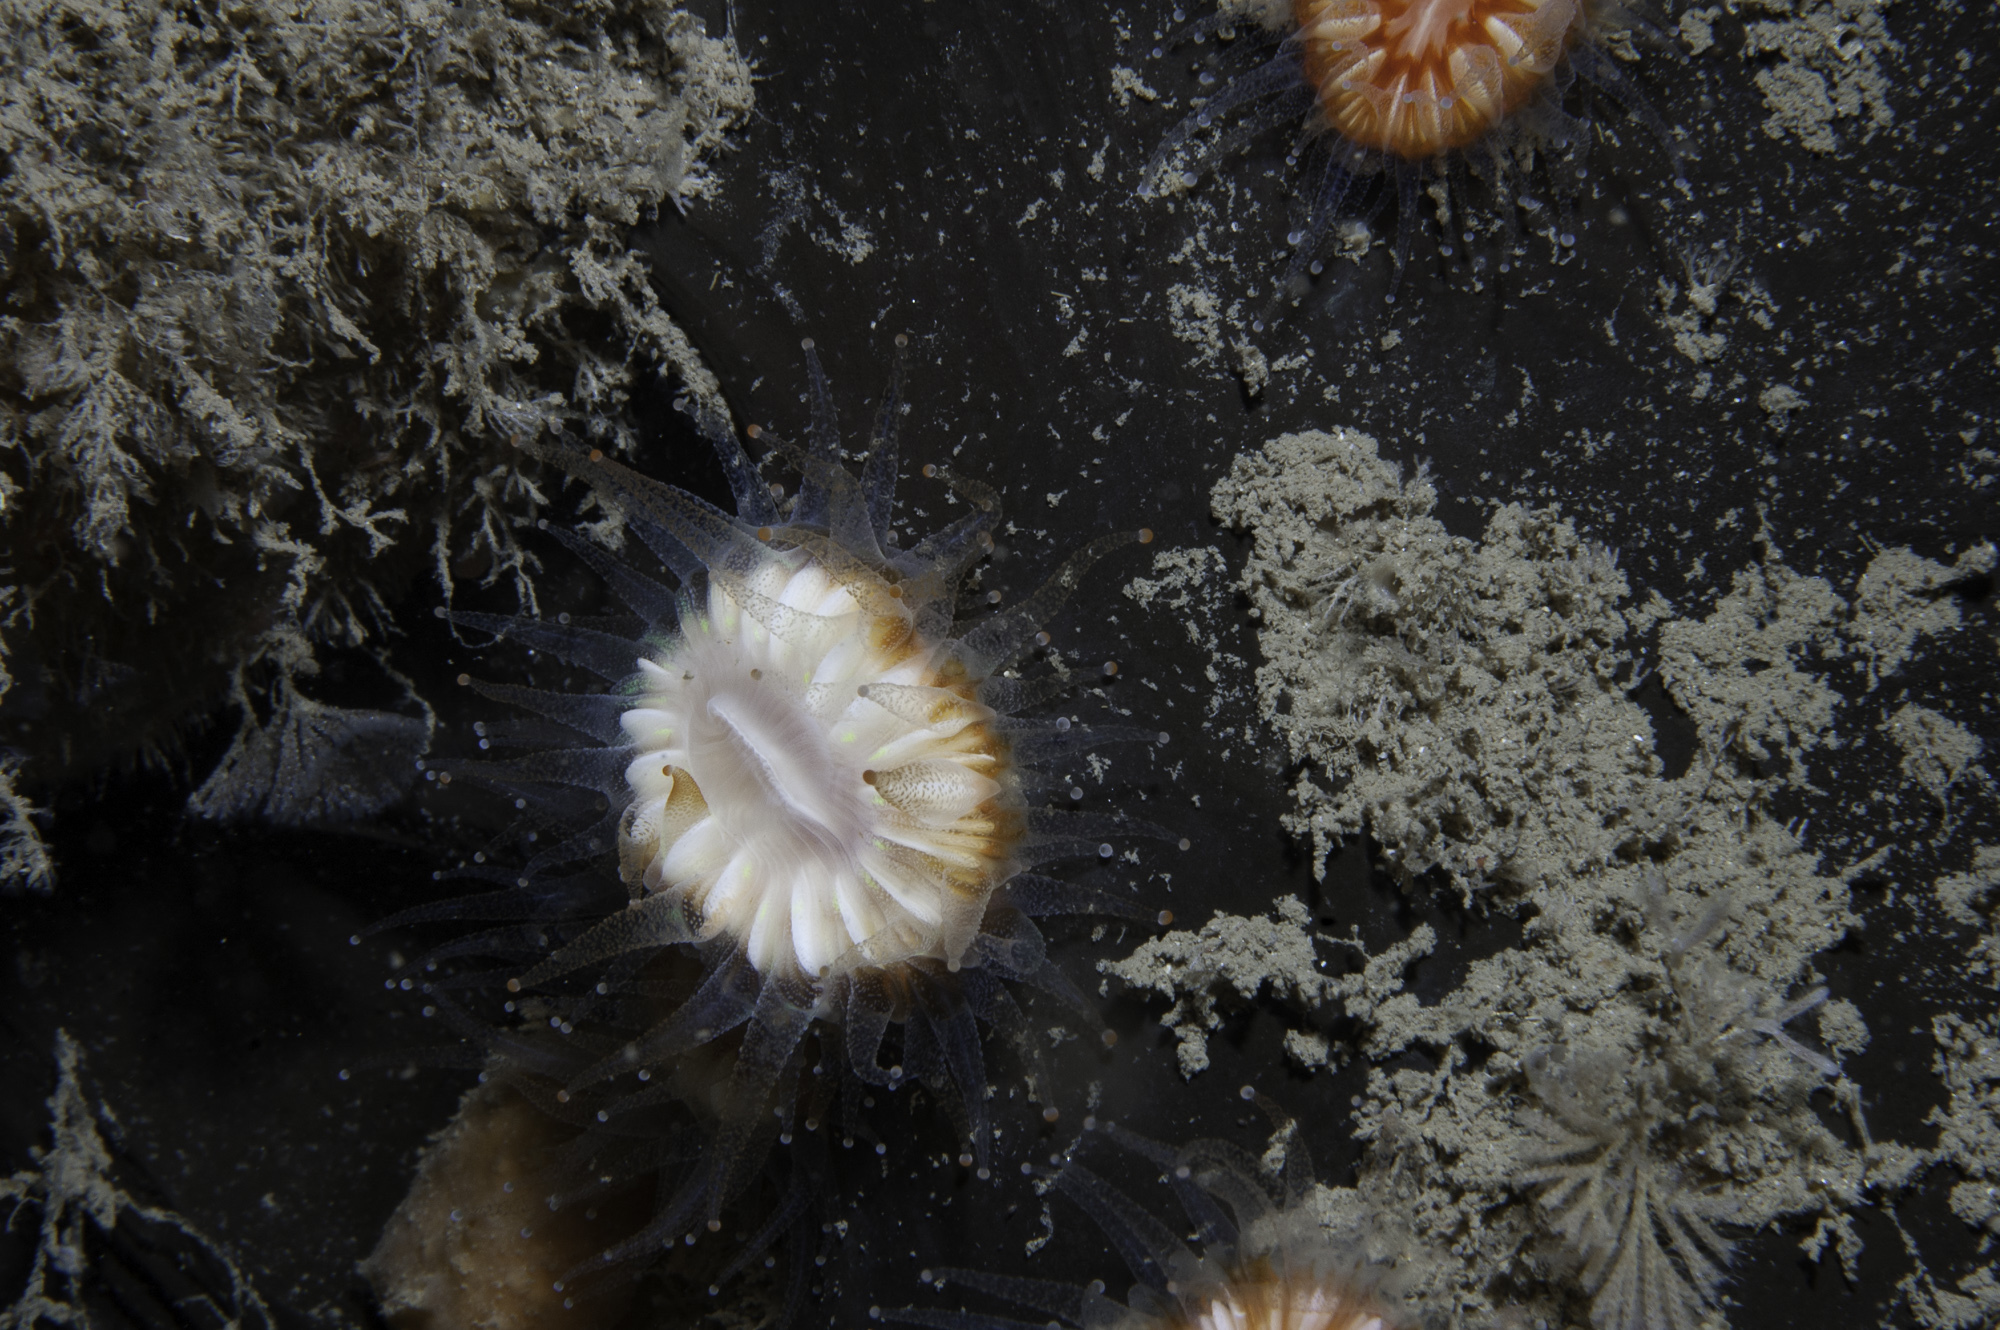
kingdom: Animalia
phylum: Porifera
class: Demospongiae
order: Tetractinellida
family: Ancorinidae
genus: Dercitus
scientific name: Dercitus bucklandi
